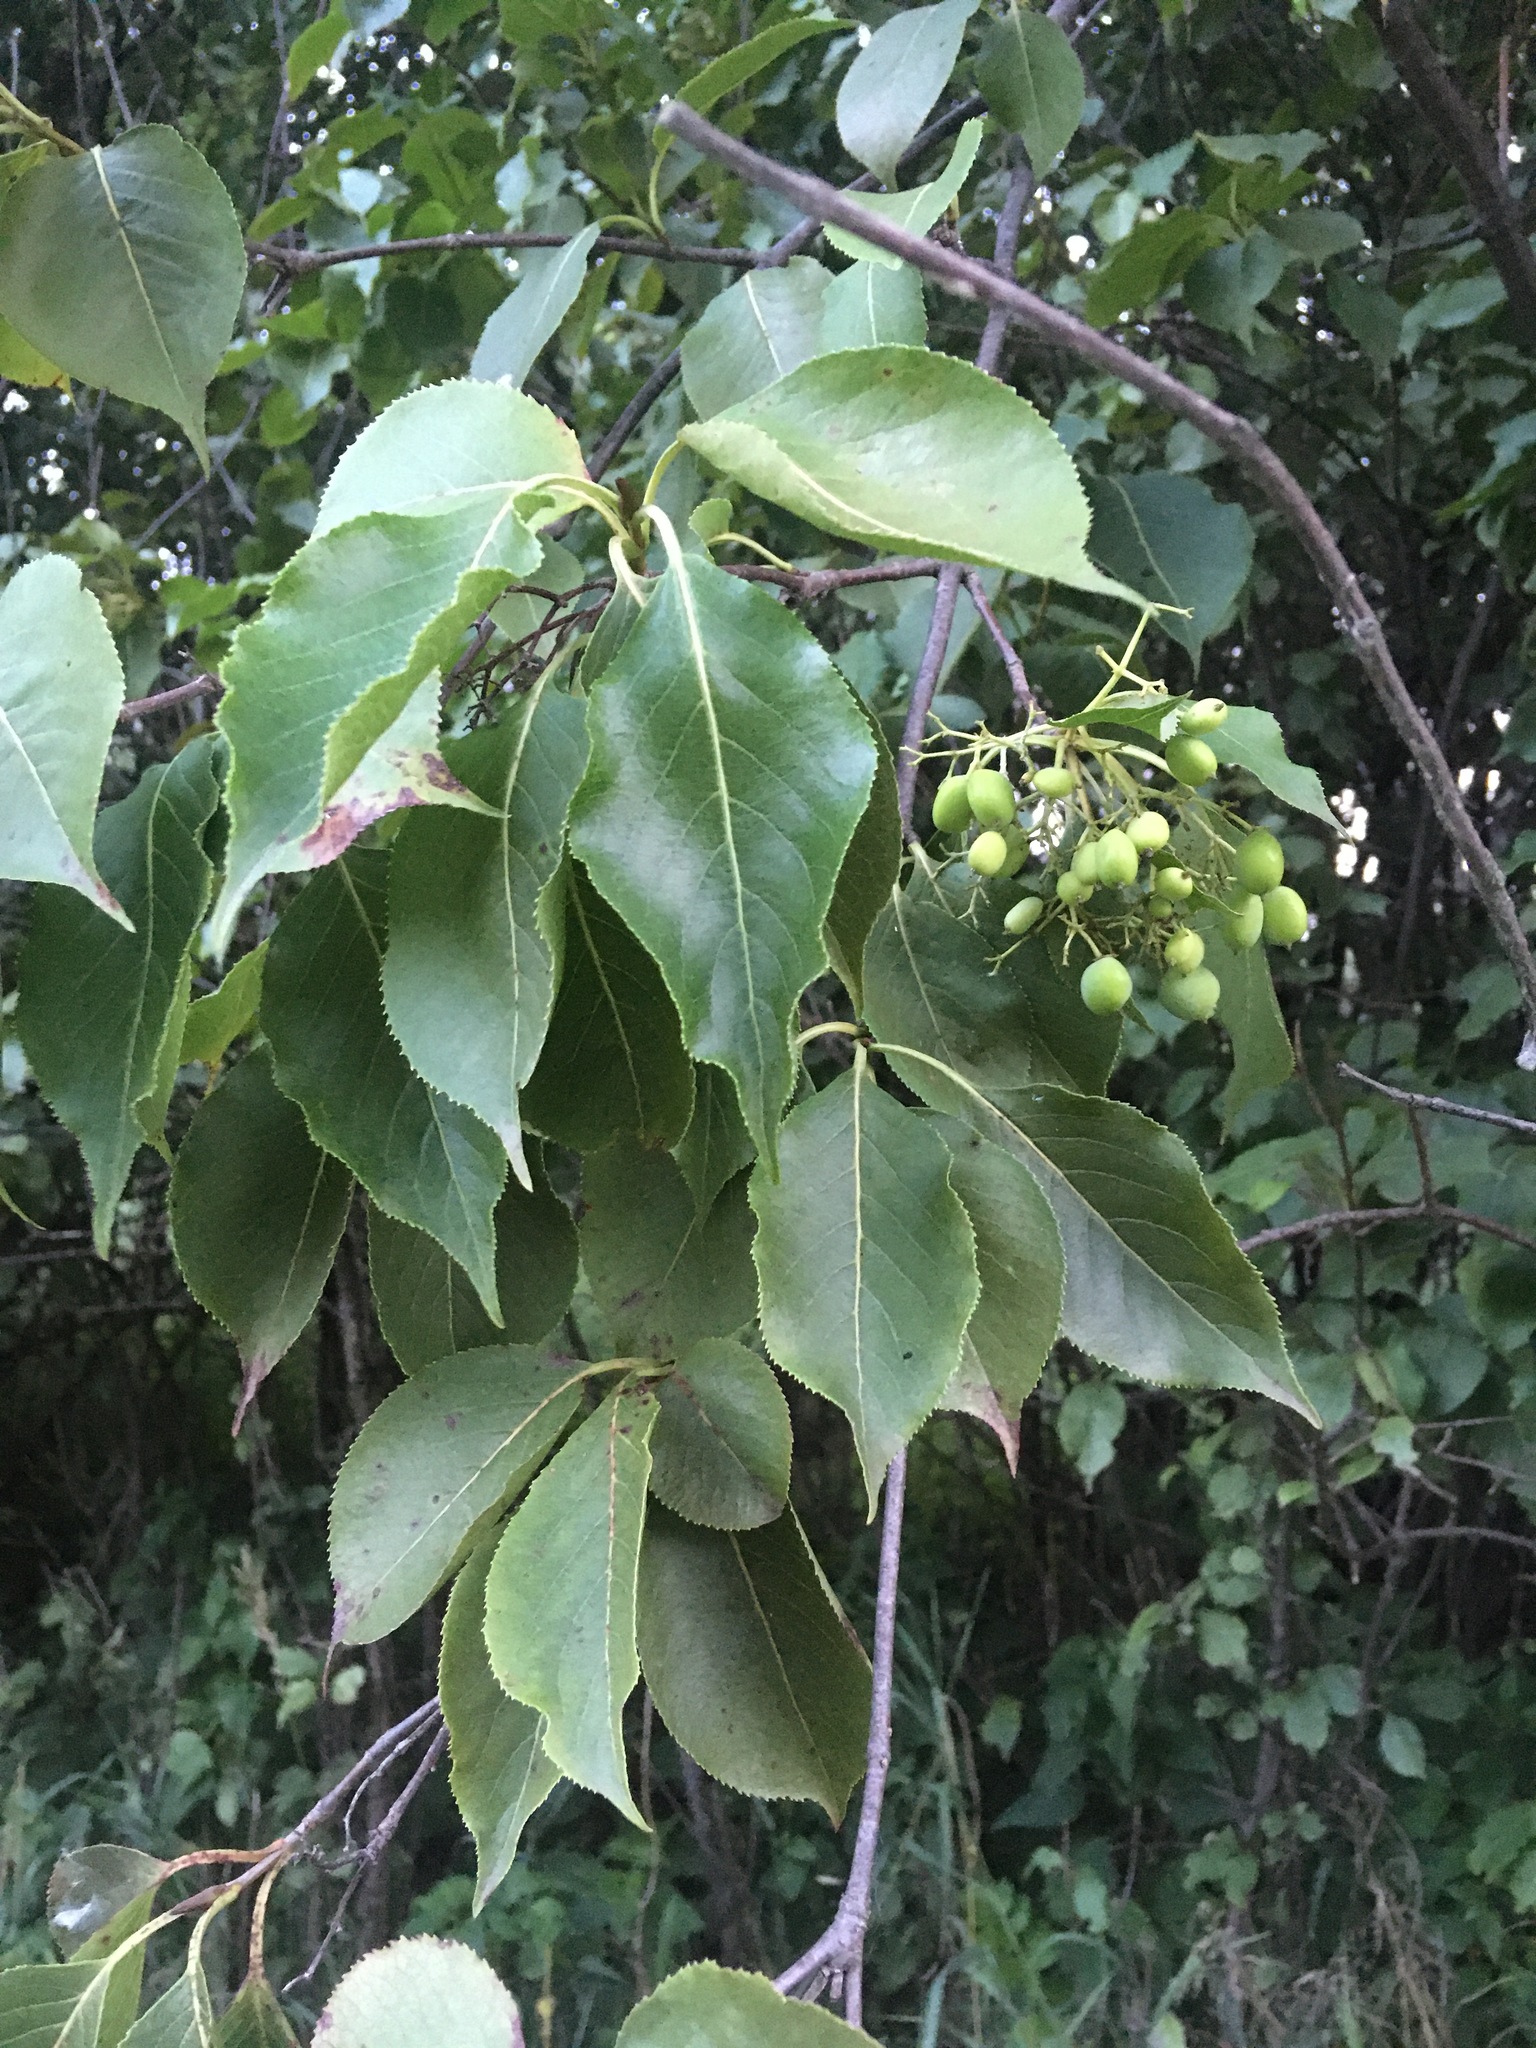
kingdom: Plantae
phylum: Tracheophyta
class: Magnoliopsida
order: Dipsacales
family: Viburnaceae
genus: Viburnum
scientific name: Viburnum lentago
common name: Black haw
